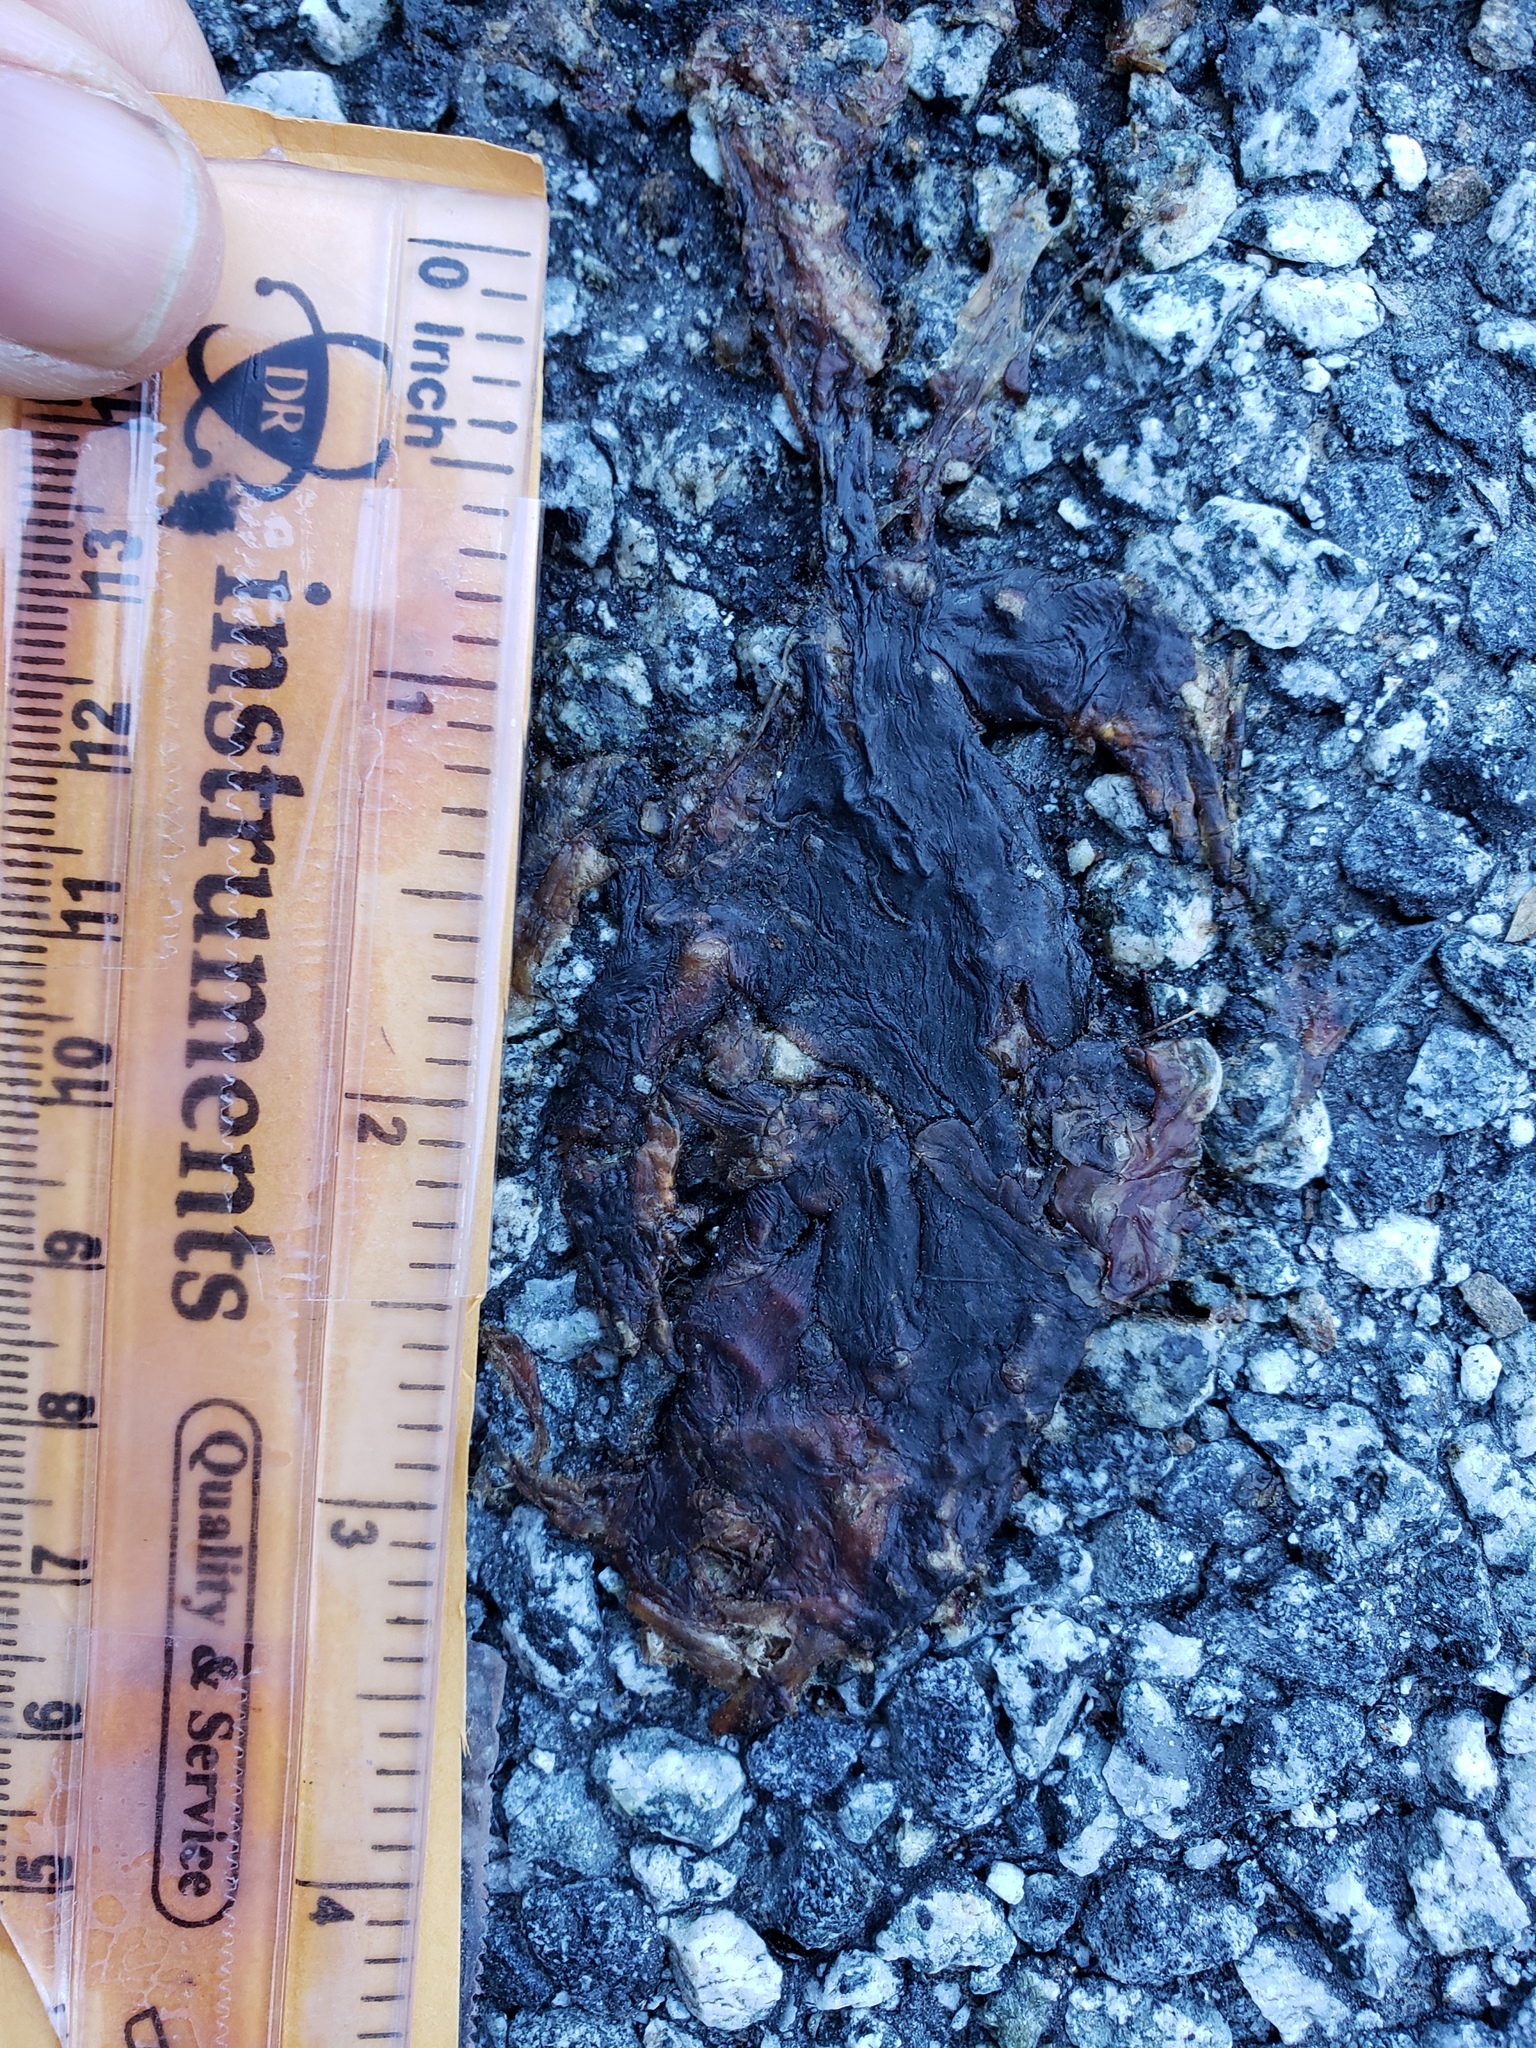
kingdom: Animalia
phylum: Chordata
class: Amphibia
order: Caudata
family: Salamandridae
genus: Taricha
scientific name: Taricha
